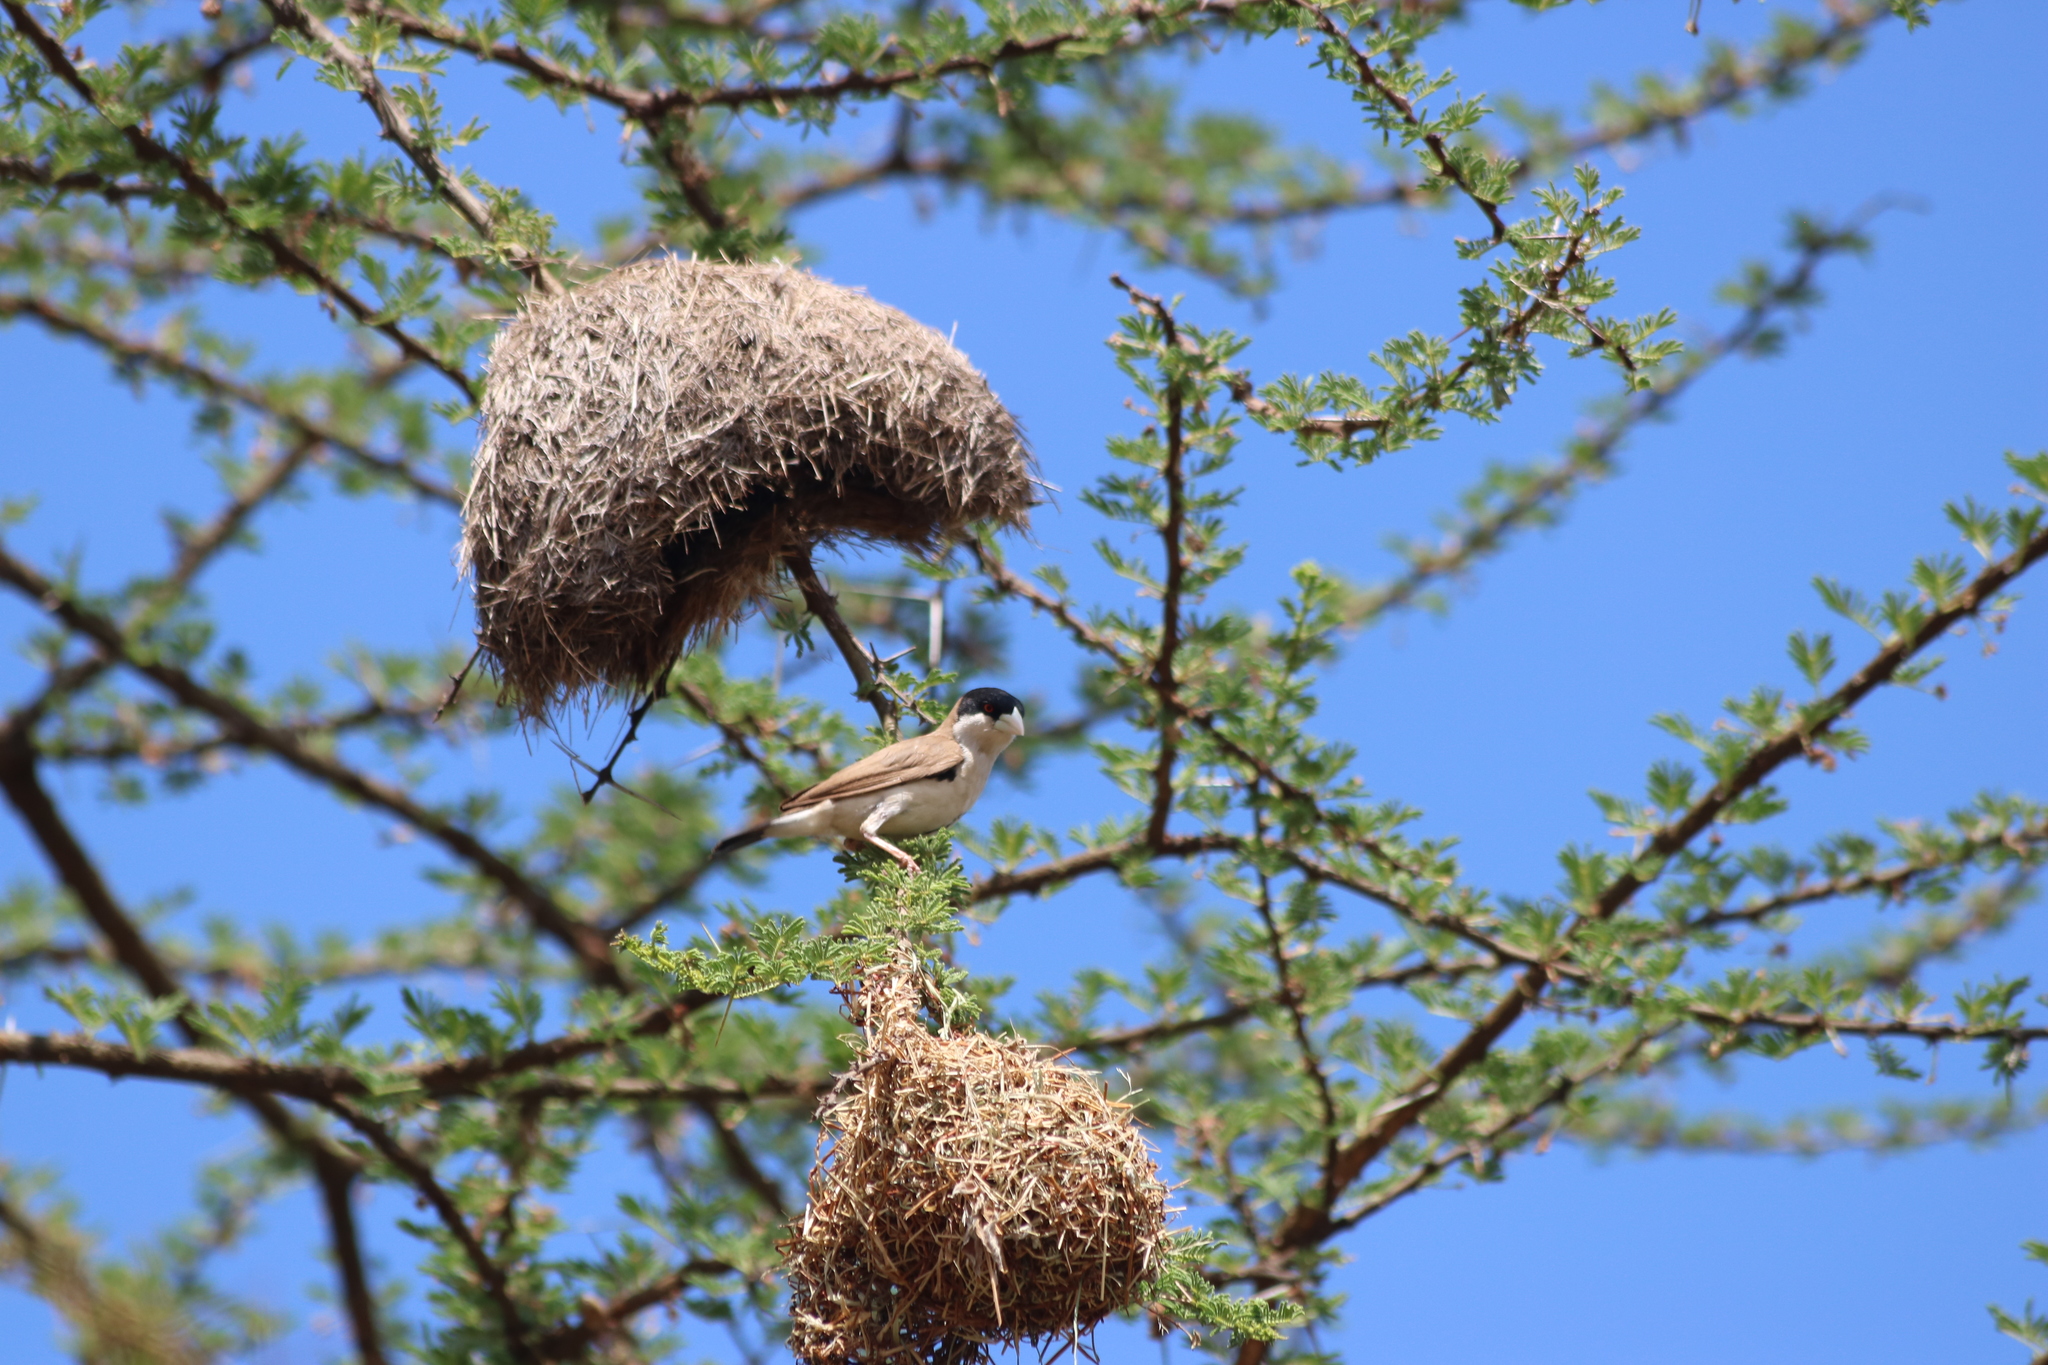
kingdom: Animalia
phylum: Chordata
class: Aves
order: Passeriformes
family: Passeridae
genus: Pseudonigrita
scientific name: Pseudonigrita cabanisi
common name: Black-capped social weaver
